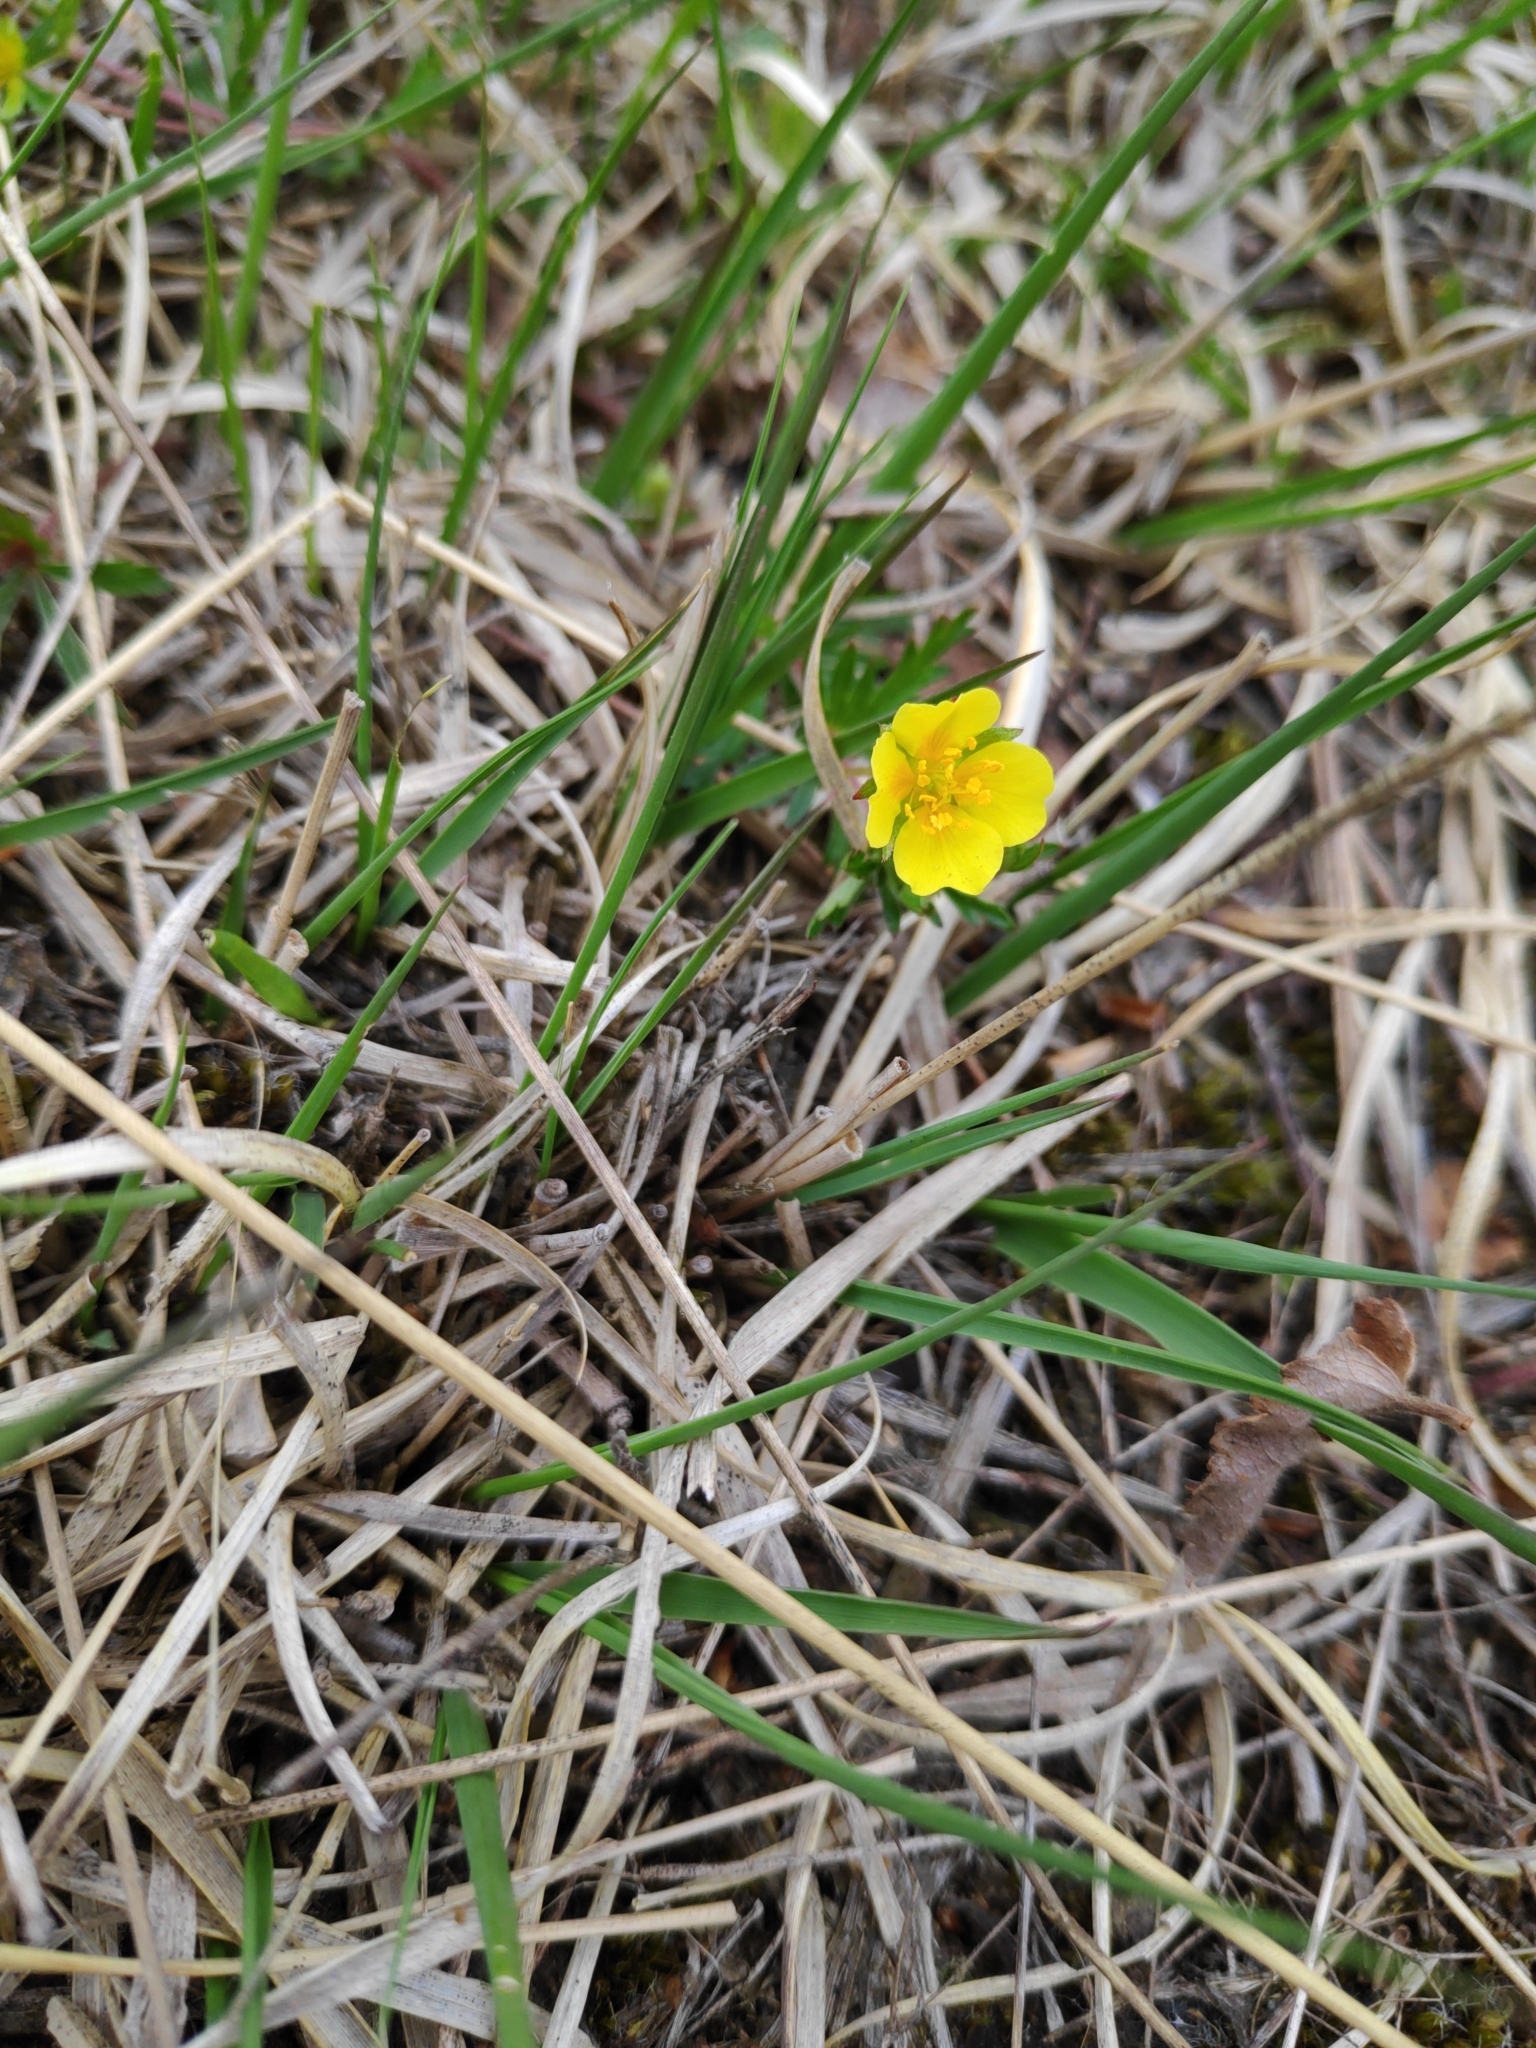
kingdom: Plantae
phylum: Tracheophyta
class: Magnoliopsida
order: Rosales
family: Rosaceae
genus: Potentilla
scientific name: Potentilla erecta
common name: Tormentil
